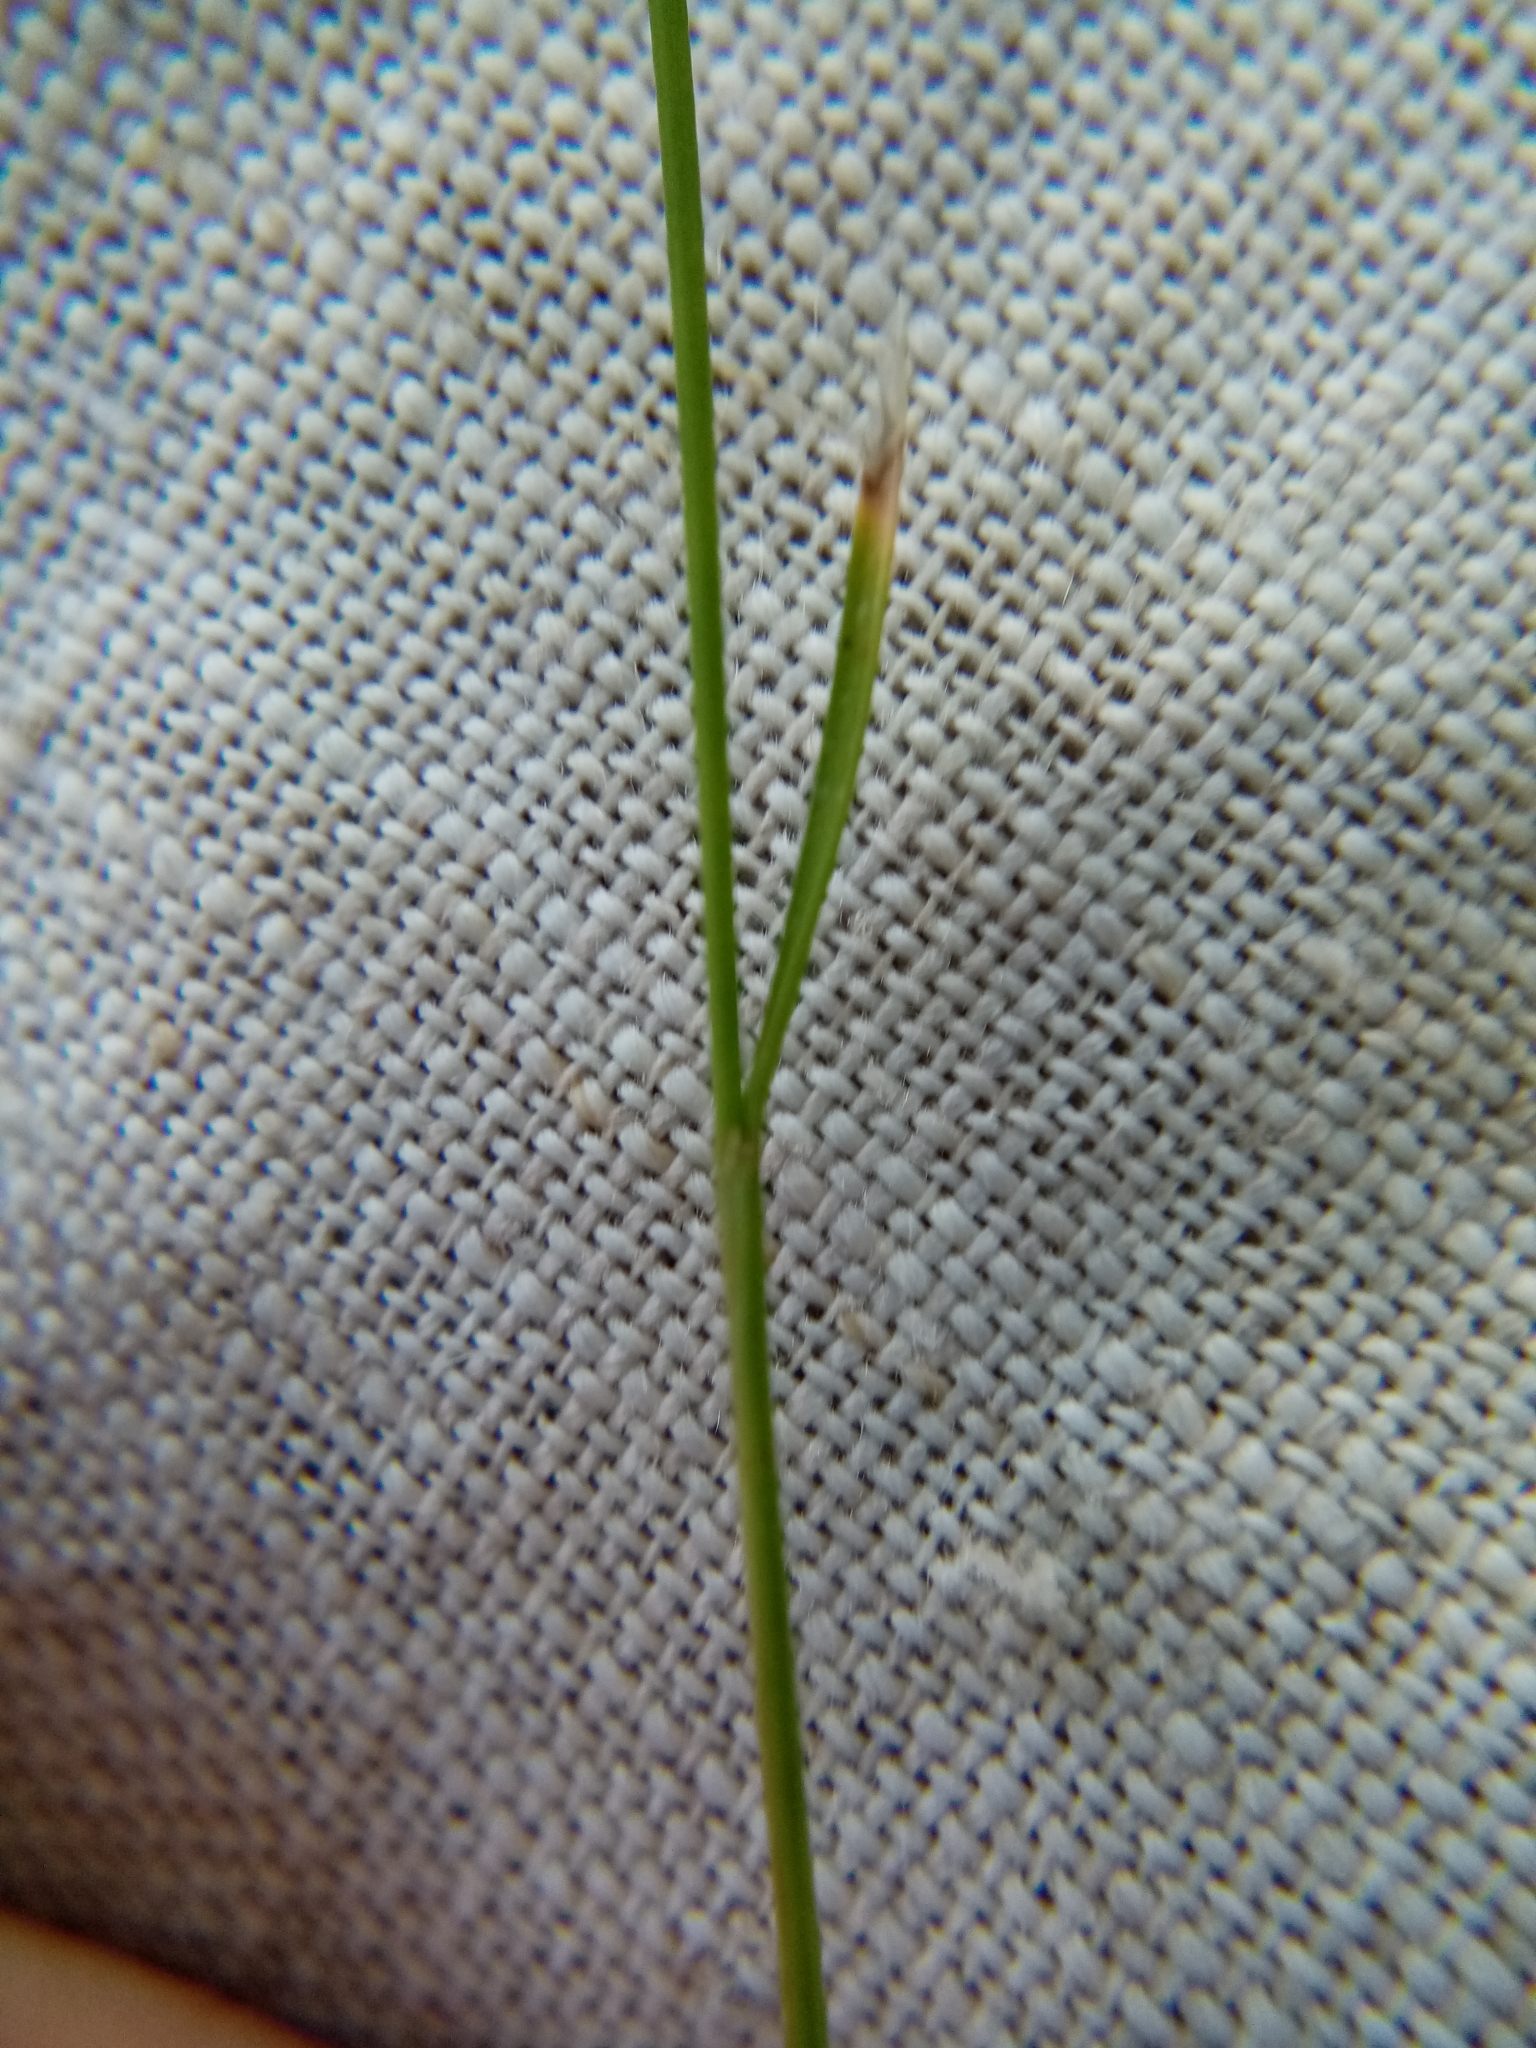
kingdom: Plantae
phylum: Tracheophyta
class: Liliopsida
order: Poales
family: Juncaceae
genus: Juncus
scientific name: Juncus compressus
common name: Round-fruited rush
